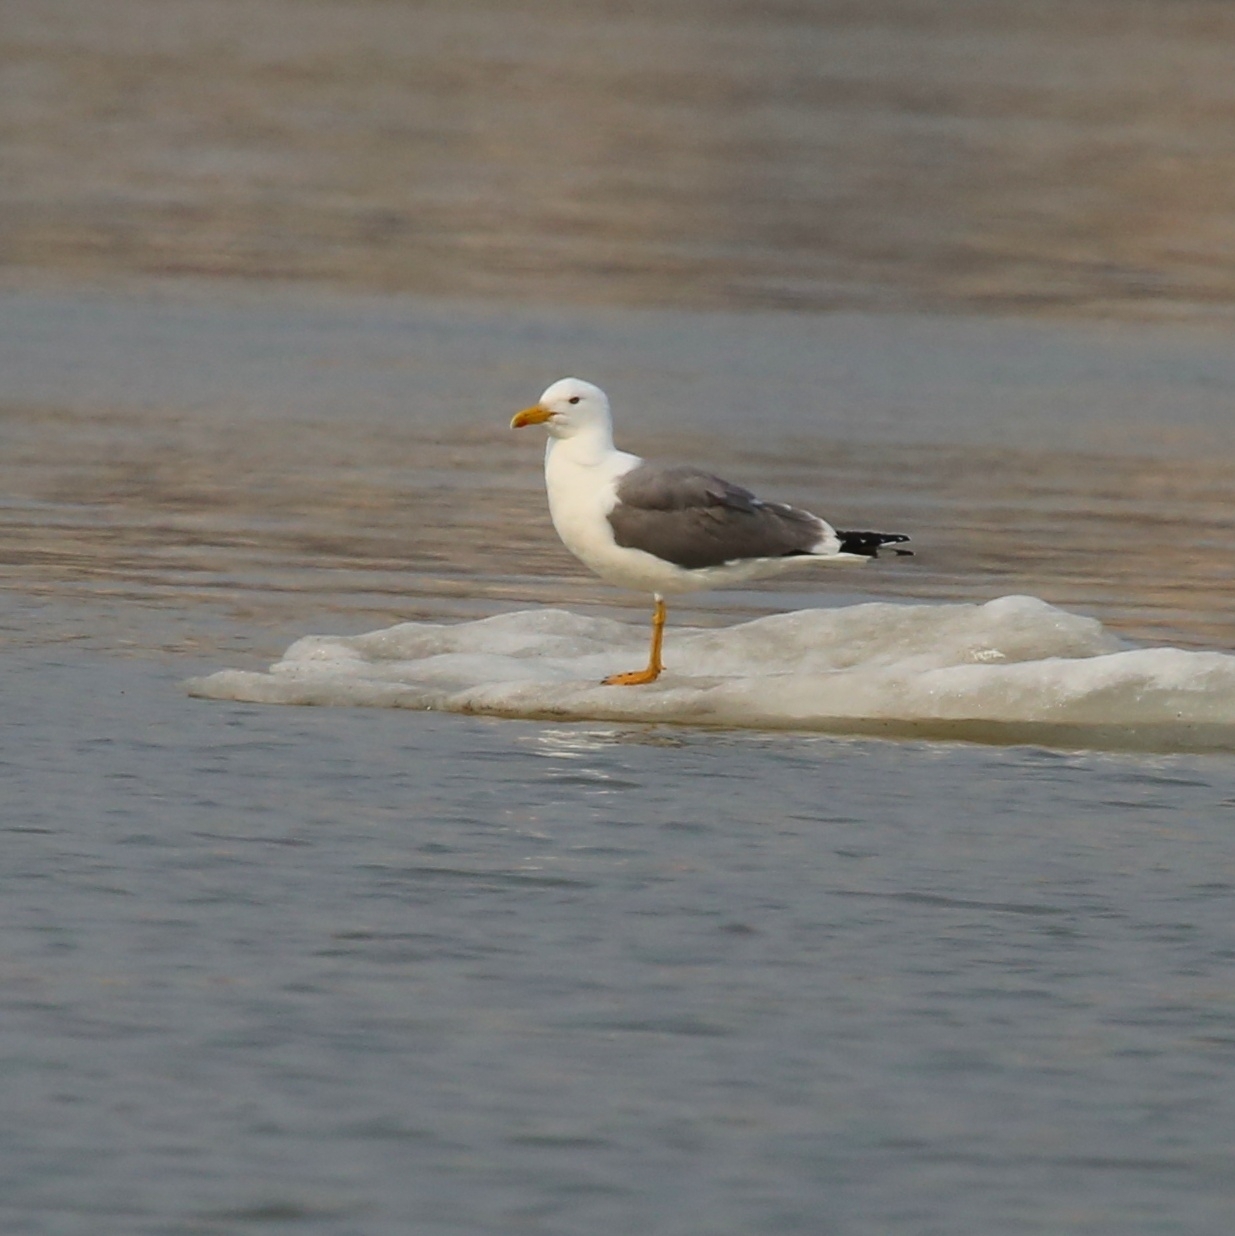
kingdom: Animalia
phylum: Chordata
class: Aves
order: Charadriiformes
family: Laridae
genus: Larus
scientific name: Larus fuscus
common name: Lesser black-backed gull
